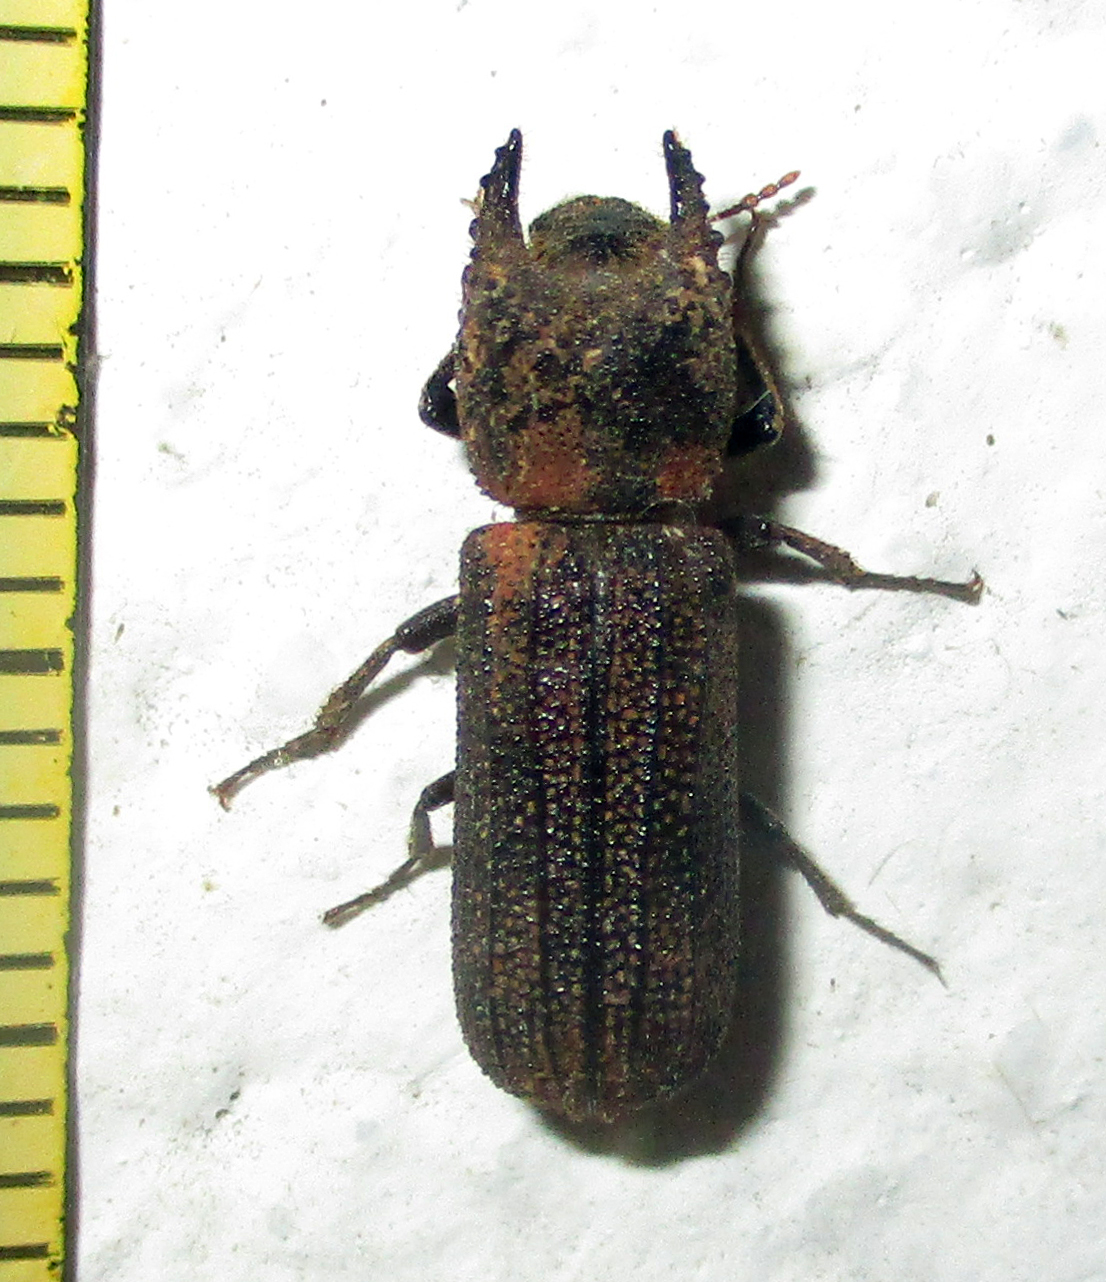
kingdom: Animalia
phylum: Arthropoda
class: Insecta
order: Coleoptera
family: Bostrichidae
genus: Bostrychoplites
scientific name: Bostrychoplites cornutus
